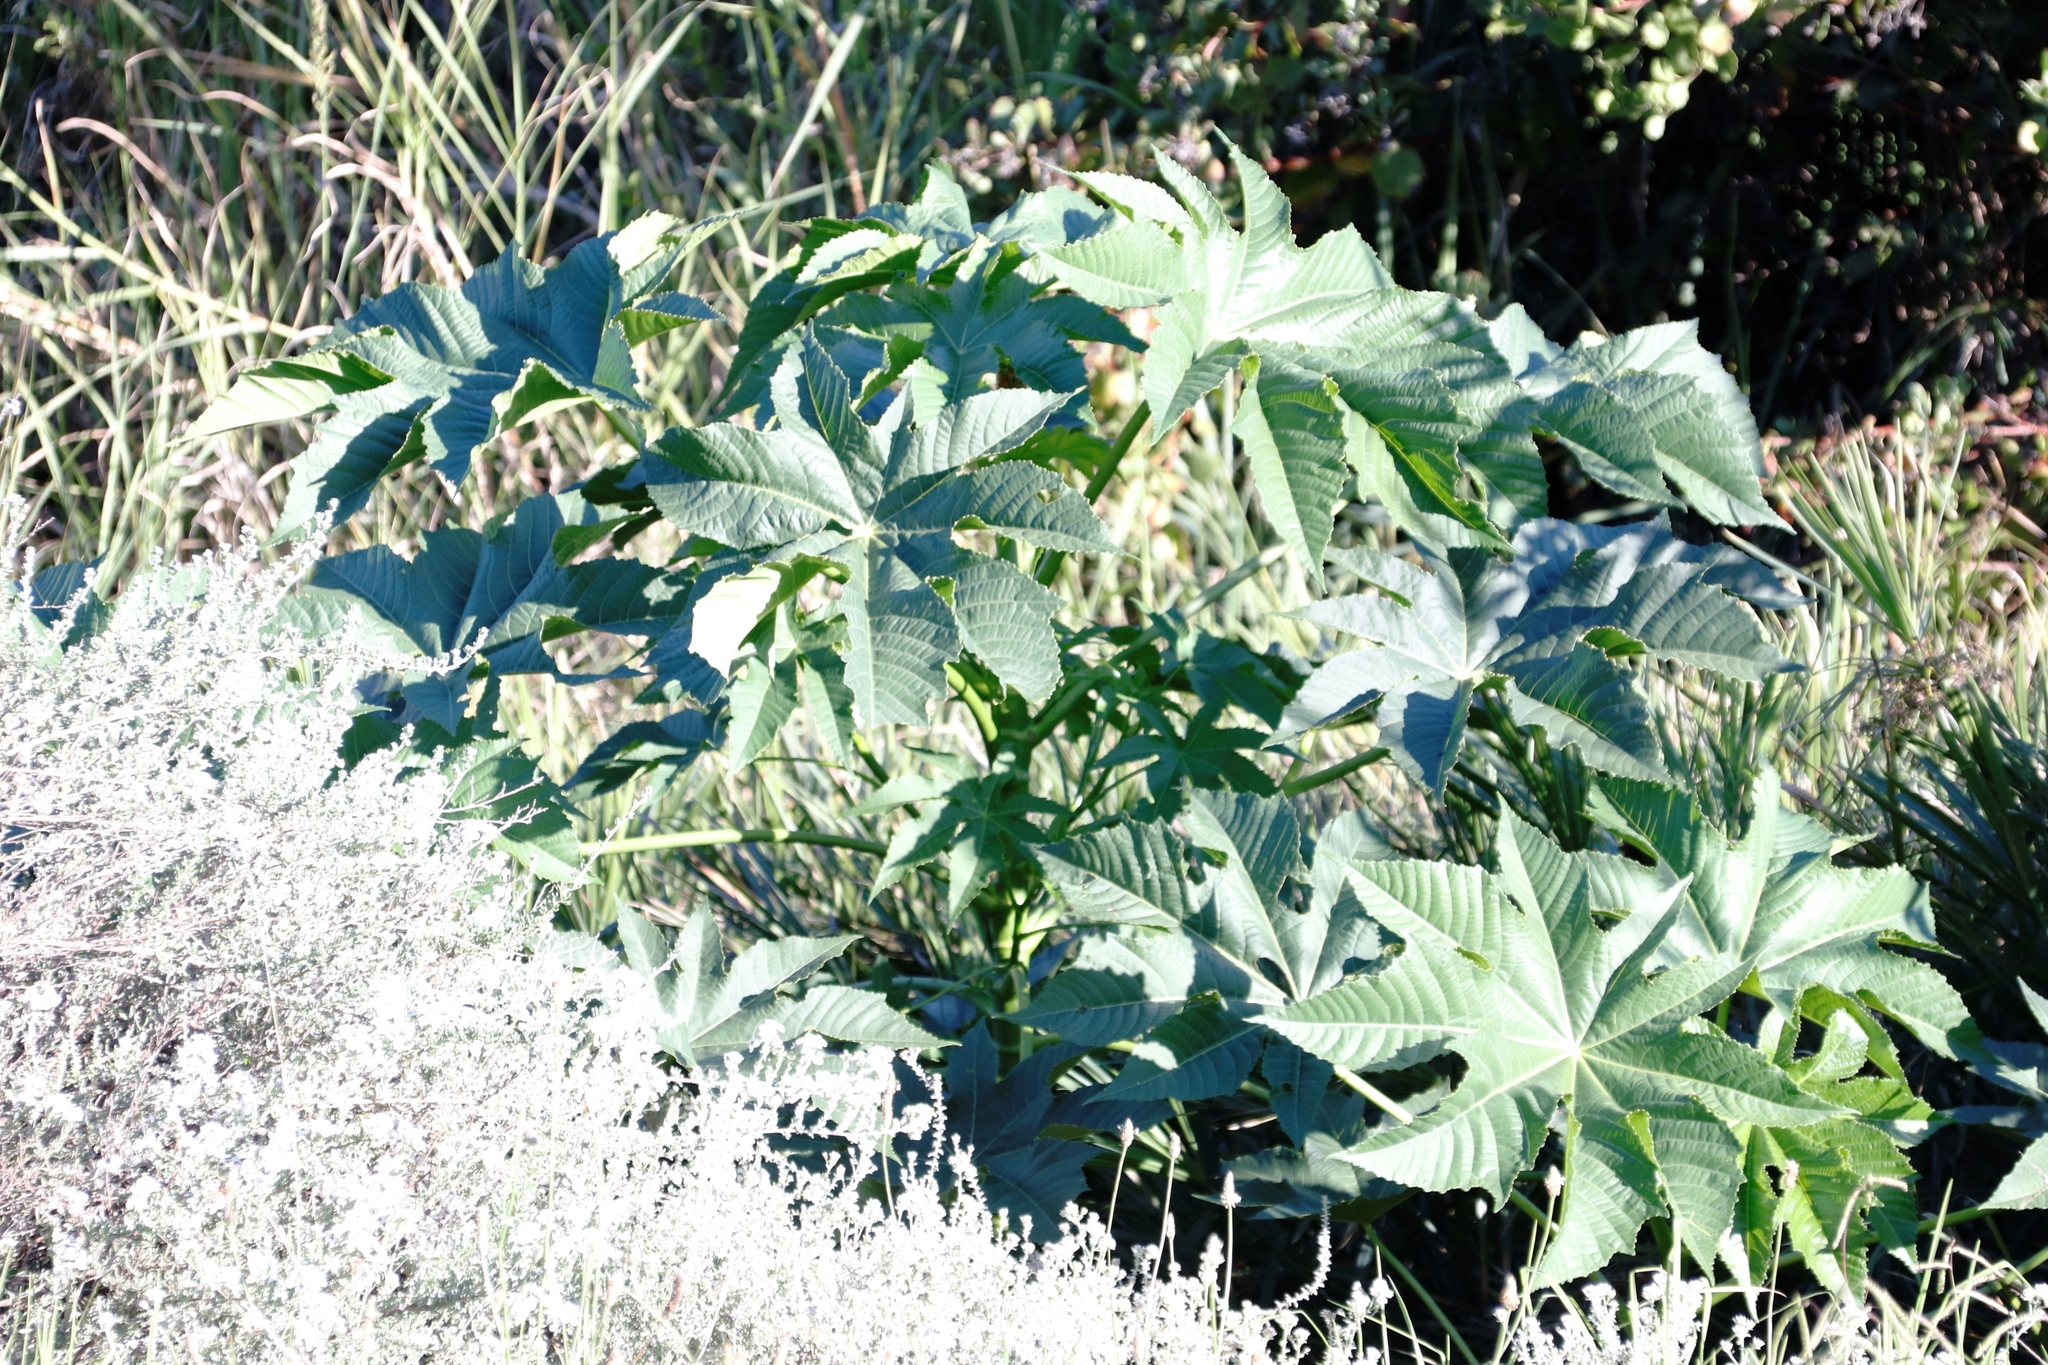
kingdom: Plantae
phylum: Tracheophyta
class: Magnoliopsida
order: Malpighiales
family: Euphorbiaceae
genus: Ricinus
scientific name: Ricinus communis
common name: Castor-oil-plant
